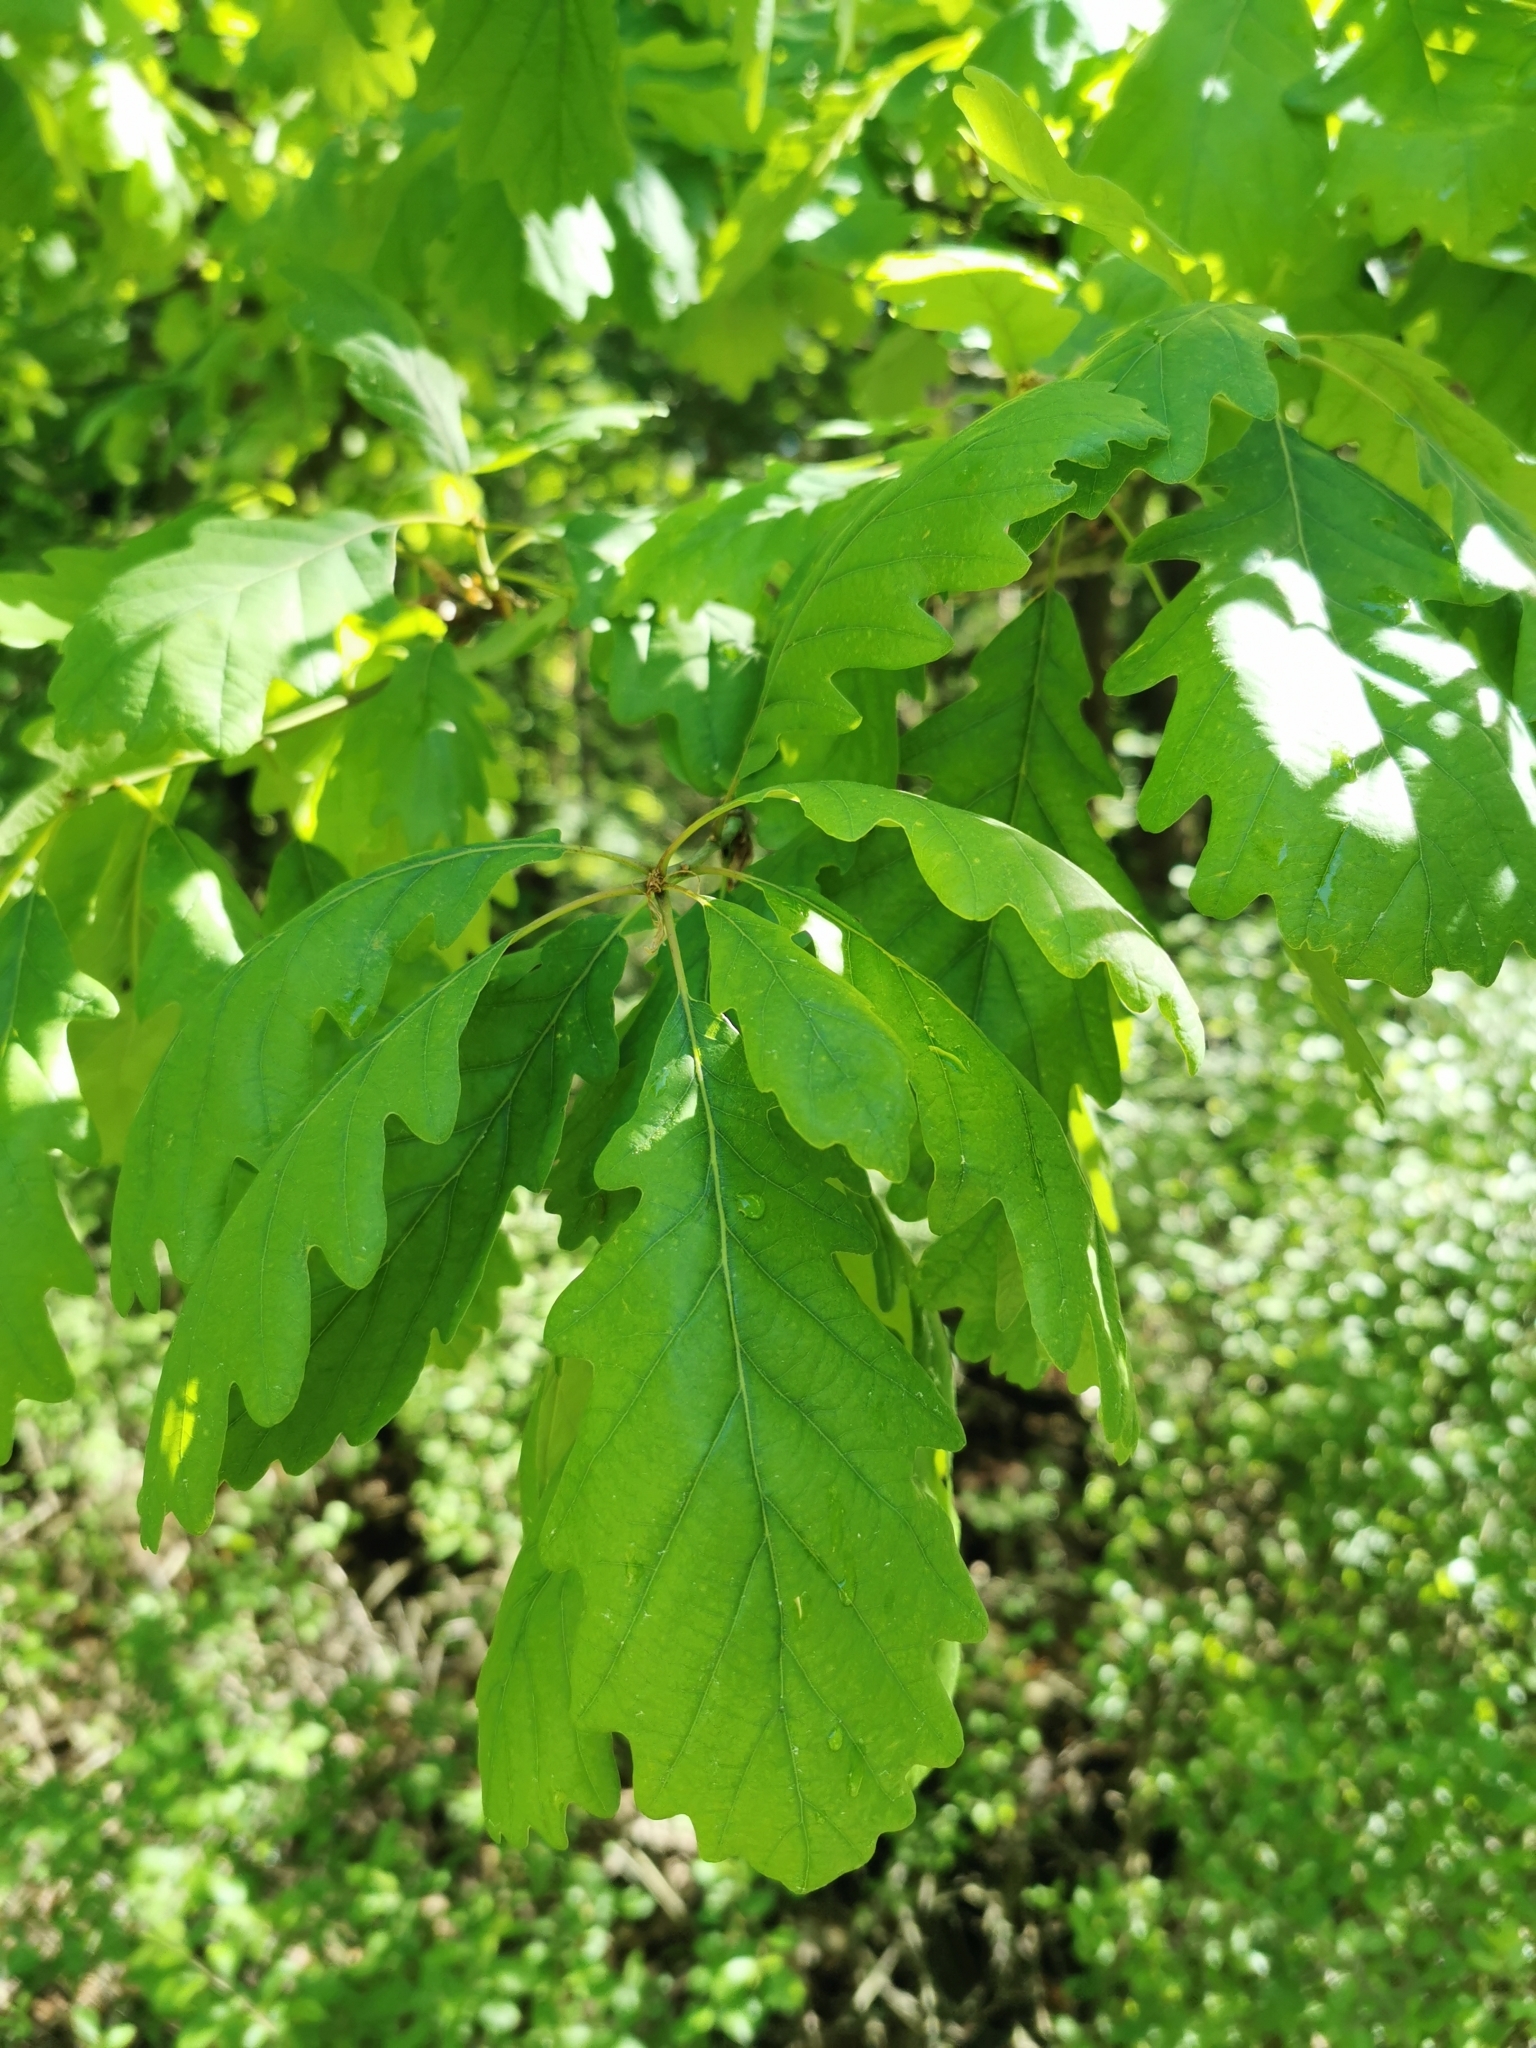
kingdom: Plantae
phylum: Tracheophyta
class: Magnoliopsida
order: Fagales
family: Fagaceae
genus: Quercus
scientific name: Quercus petraea
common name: Sessile oak
